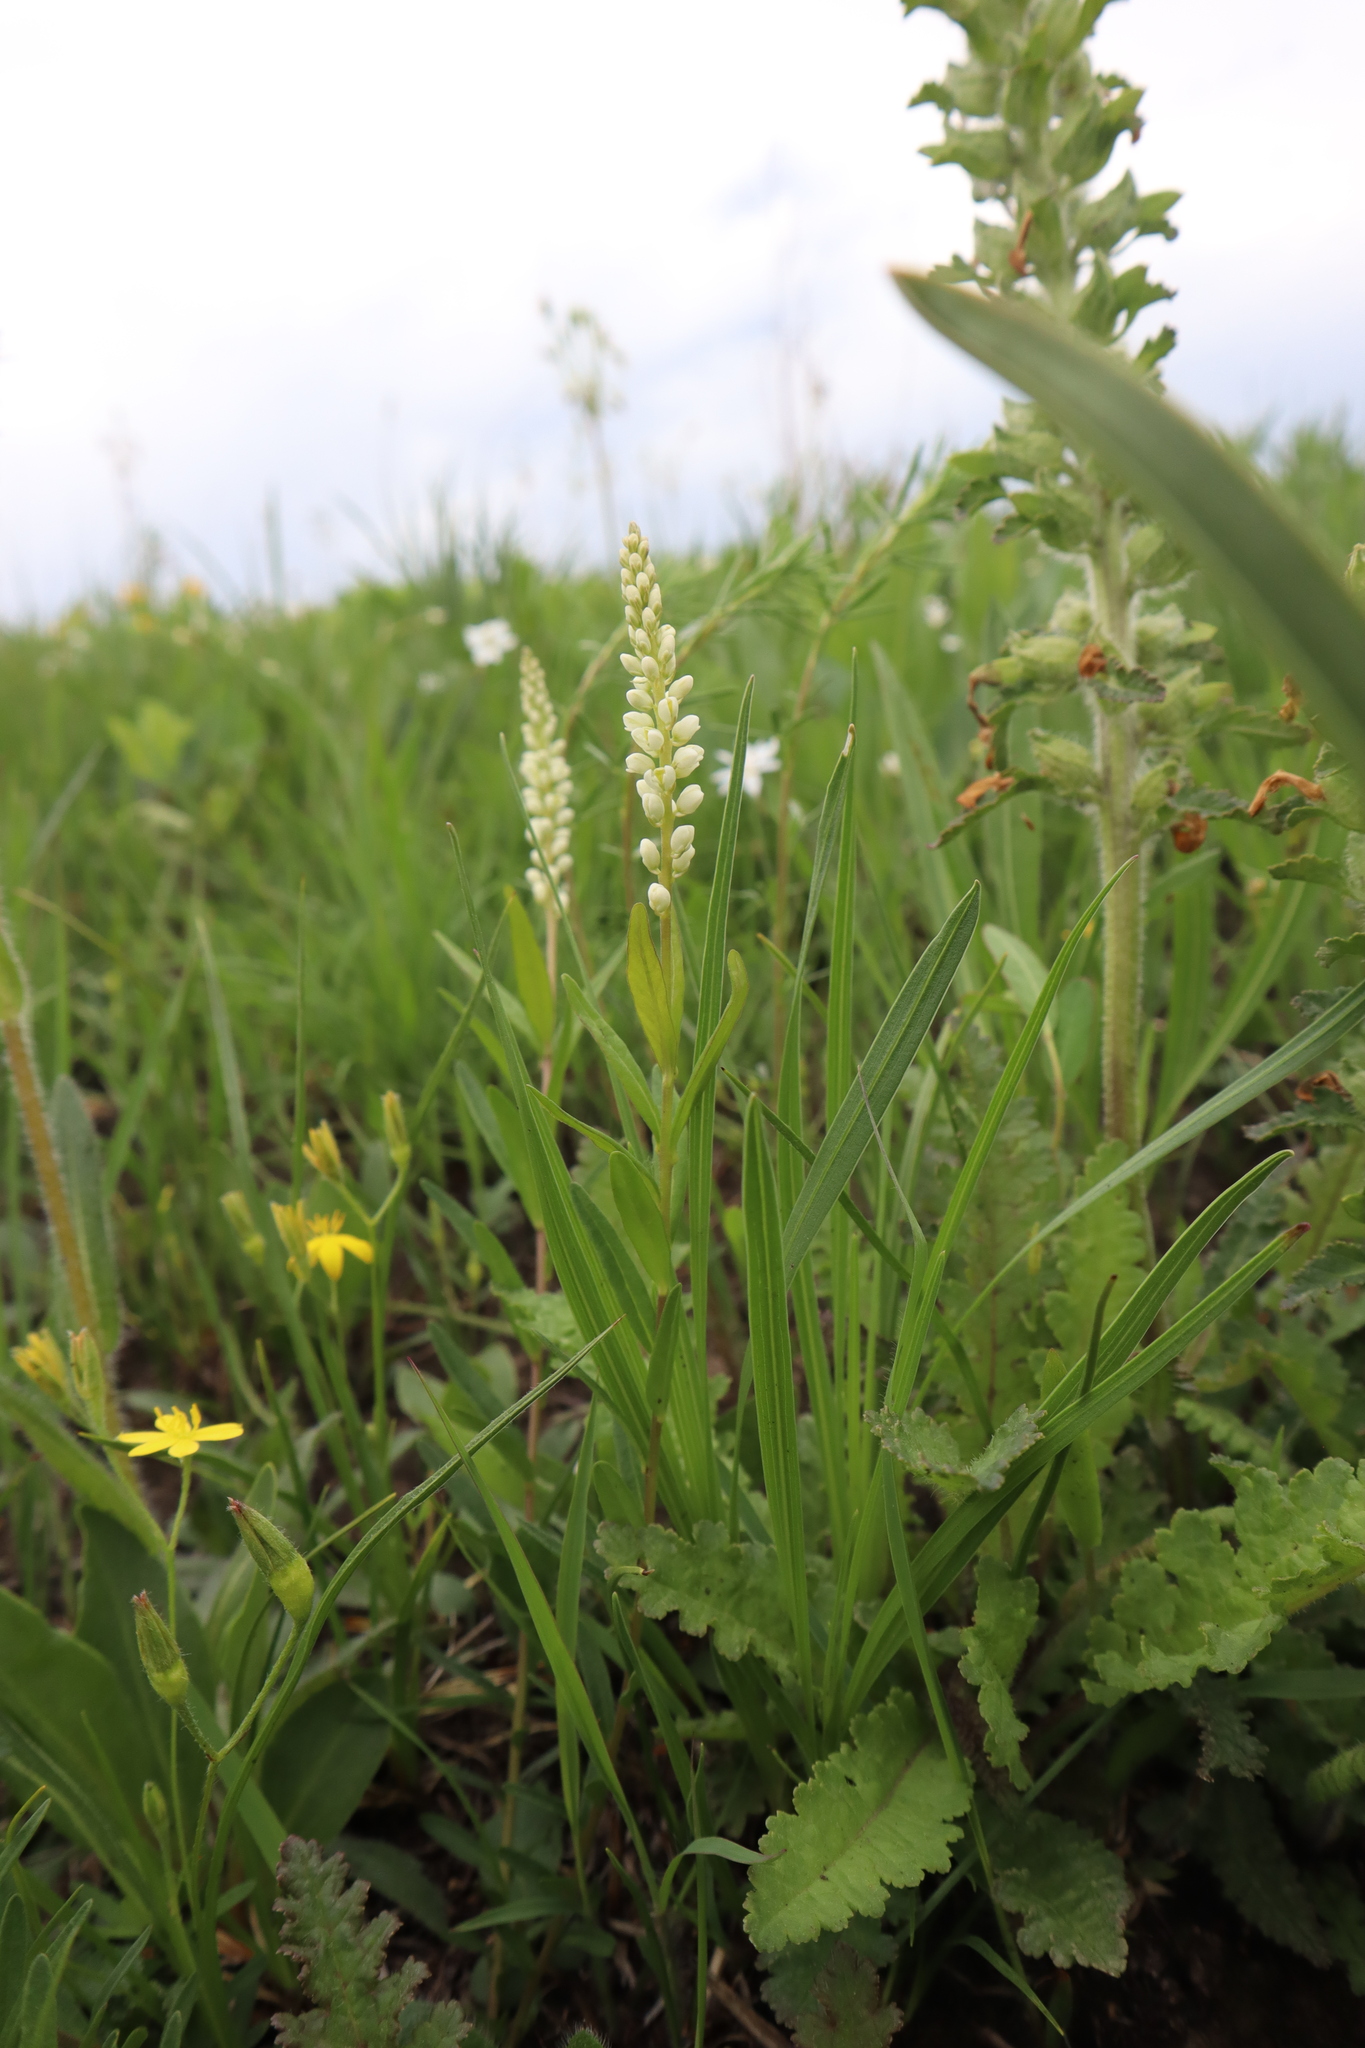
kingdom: Plantae
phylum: Tracheophyta
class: Magnoliopsida
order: Fabales
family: Polygalaceae
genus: Polygala
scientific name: Polygala senega
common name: Seneca snakeroot
